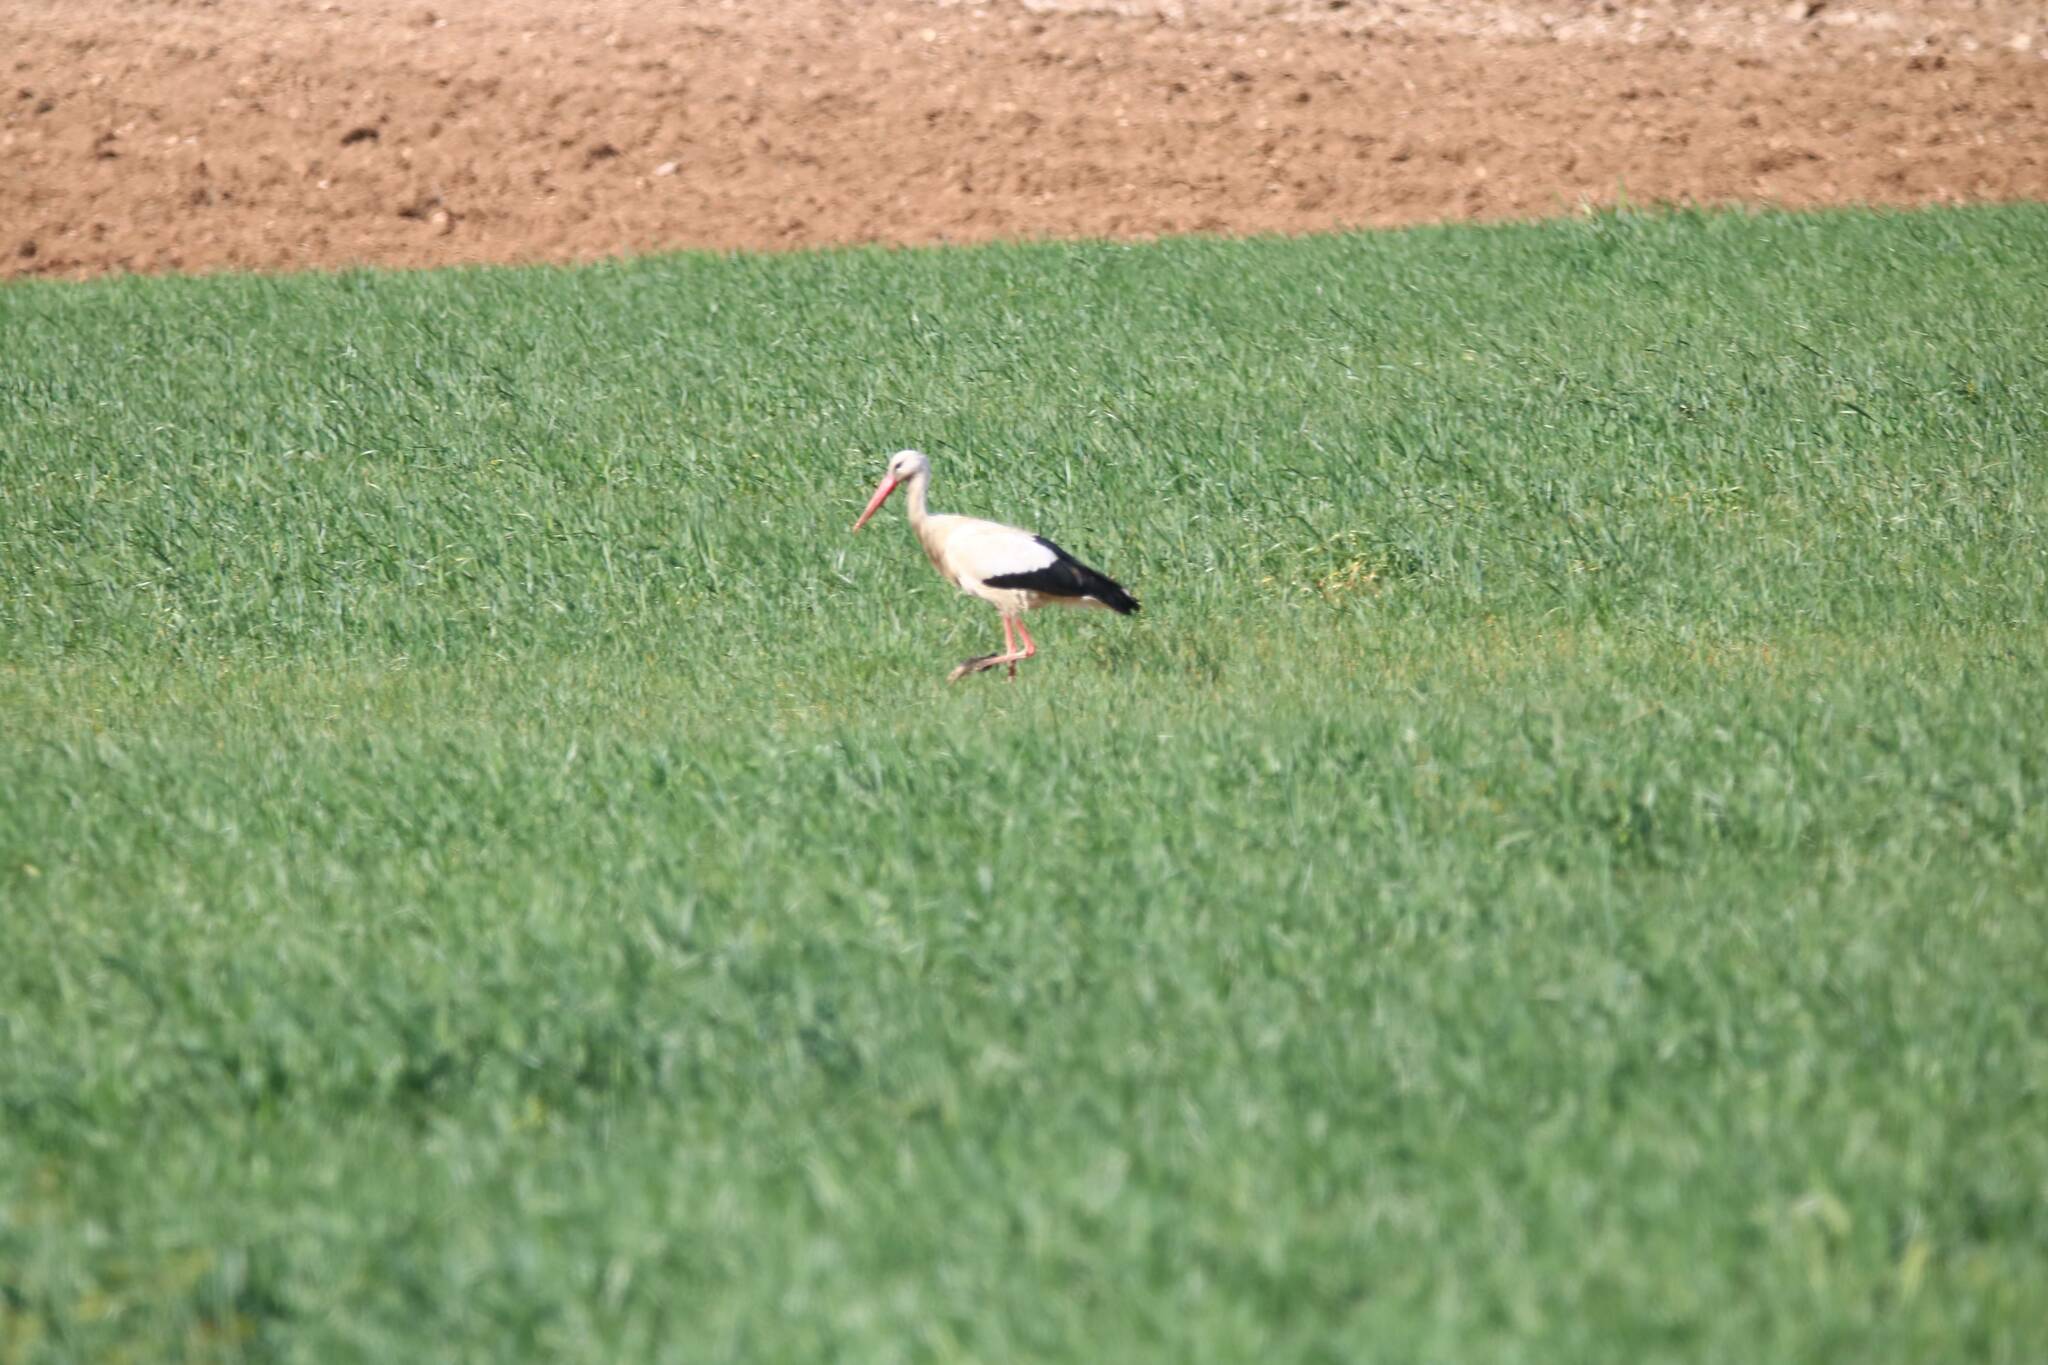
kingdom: Animalia
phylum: Chordata
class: Aves
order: Ciconiiformes
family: Ciconiidae
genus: Ciconia
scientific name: Ciconia ciconia
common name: White stork
